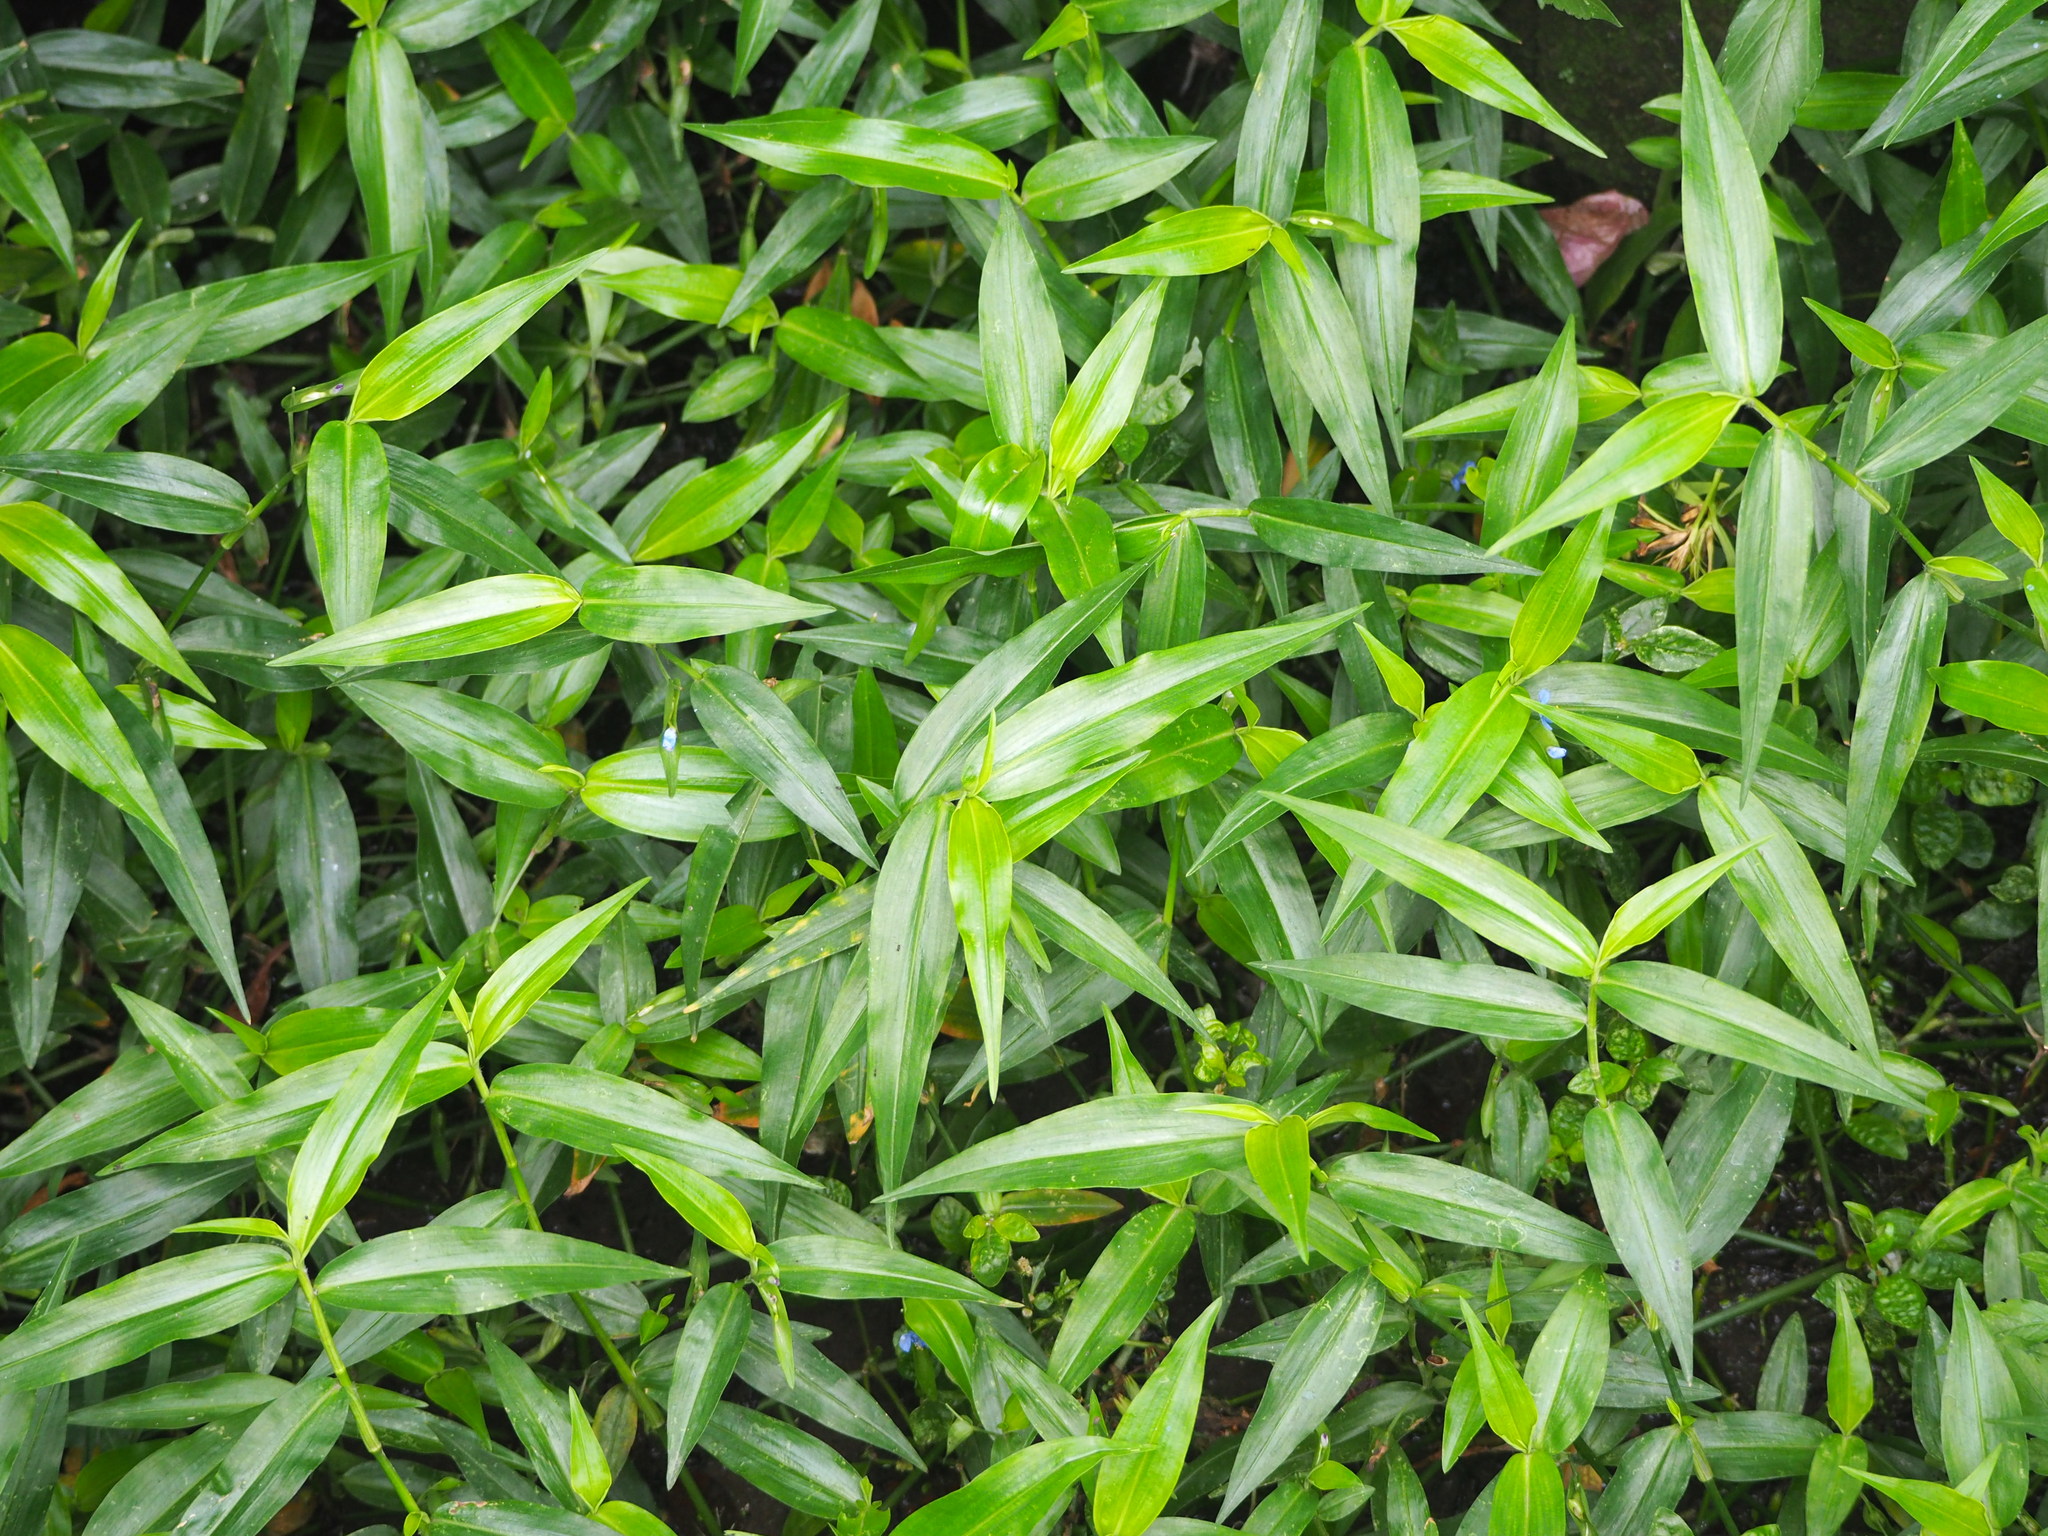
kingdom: Plantae
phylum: Tracheophyta
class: Liliopsida
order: Commelinales
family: Commelinaceae
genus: Commelina
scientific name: Commelina diffusa
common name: Climbing dayflower
